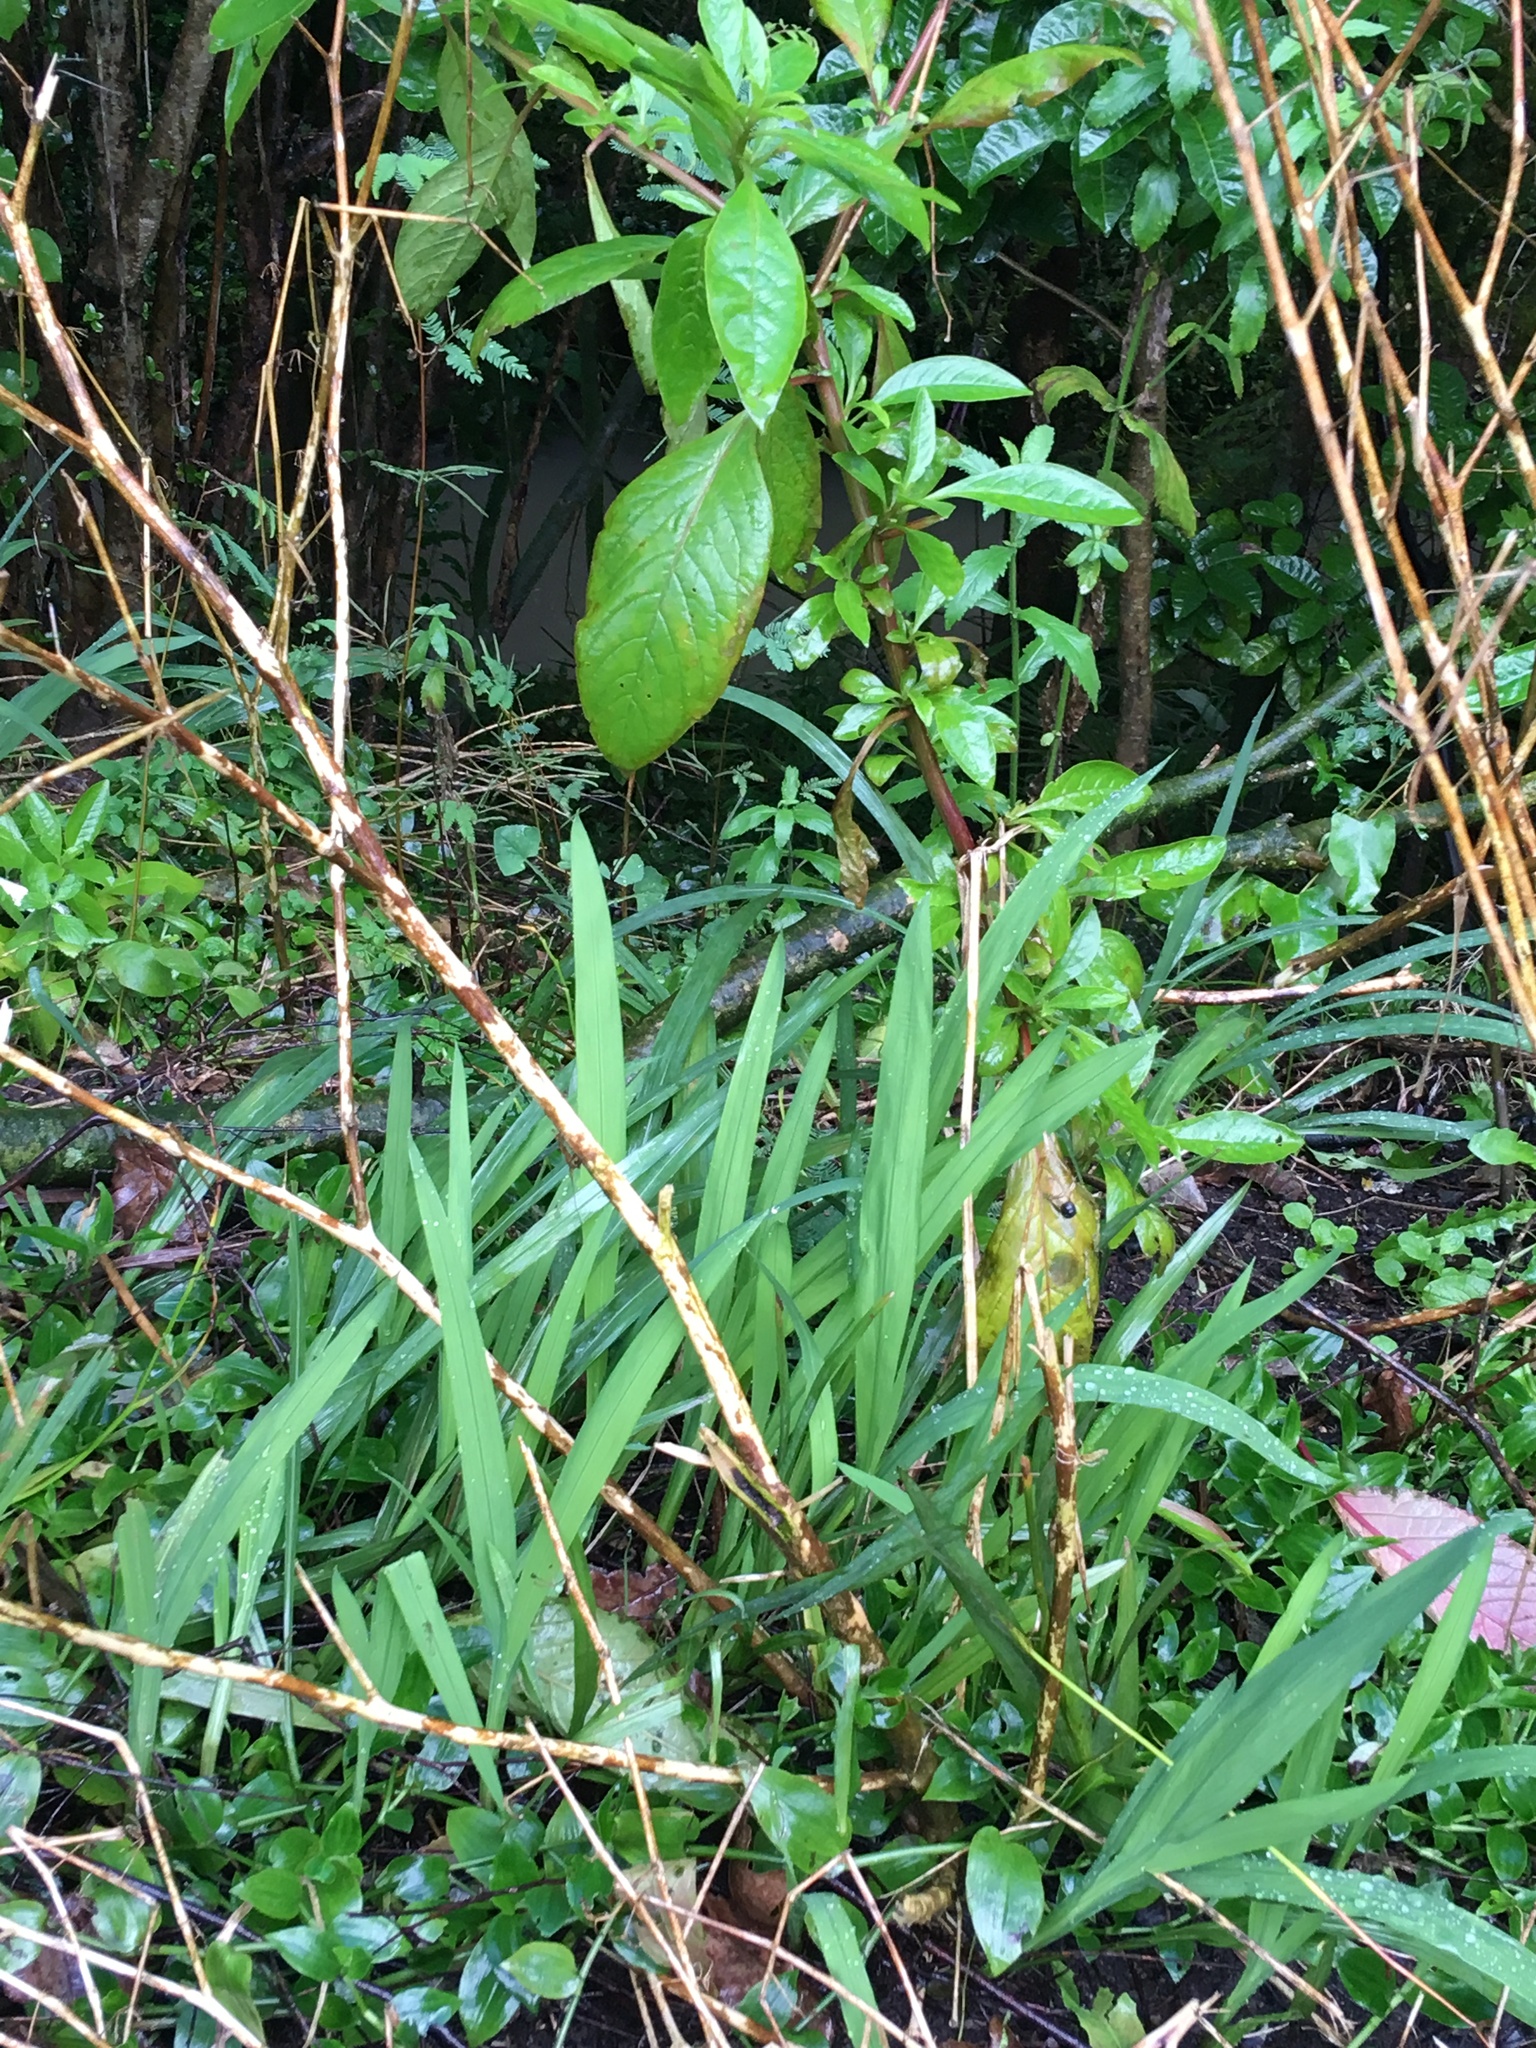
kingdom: Plantae
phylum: Tracheophyta
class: Magnoliopsida
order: Caryophyllales
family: Phytolaccaceae
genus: Phytolacca
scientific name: Phytolacca icosandra
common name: Button pokeweed
